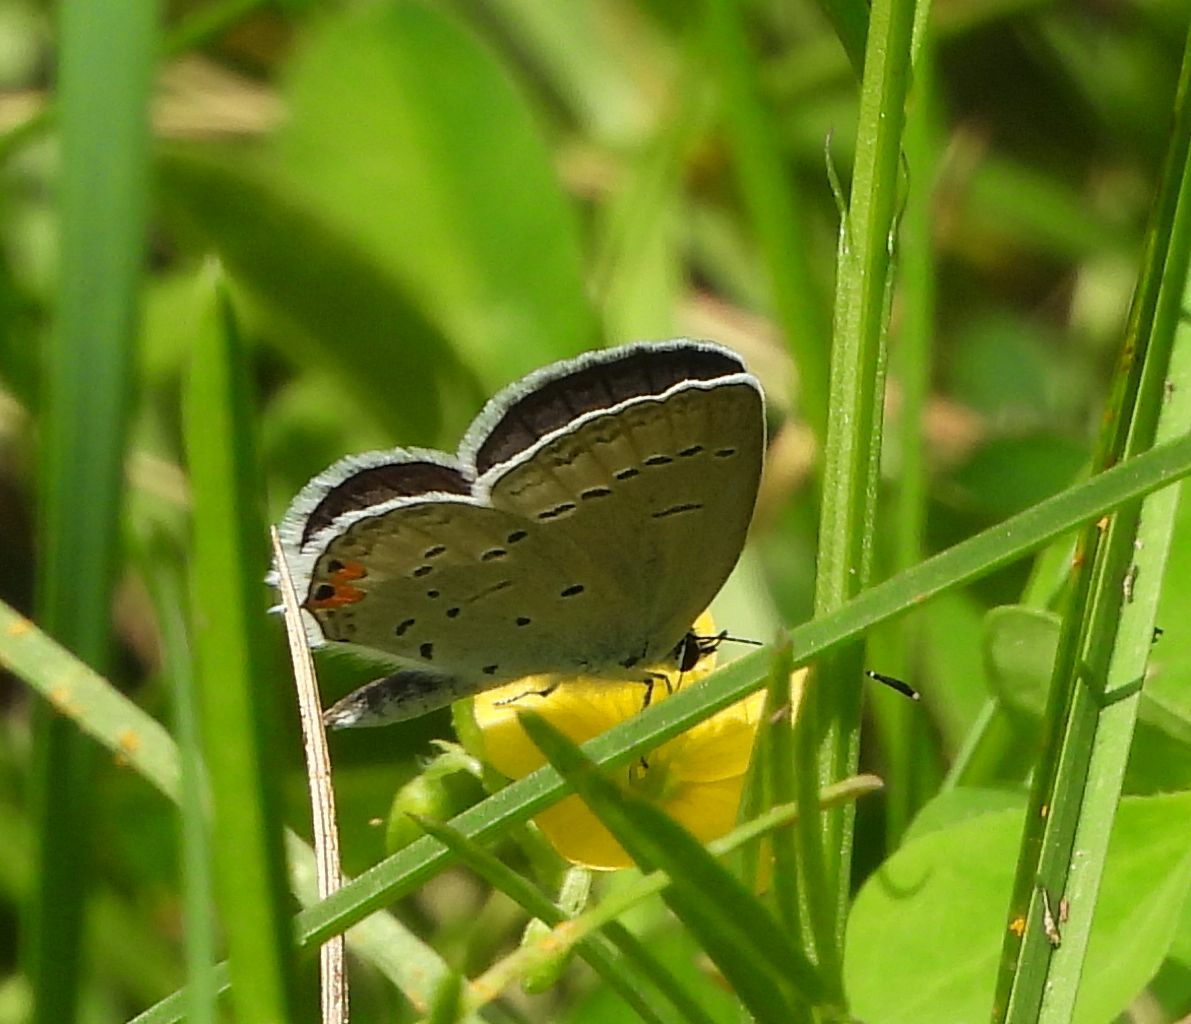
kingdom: Animalia
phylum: Arthropoda
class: Insecta
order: Lepidoptera
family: Lycaenidae
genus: Elkalyce
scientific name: Elkalyce comyntas
